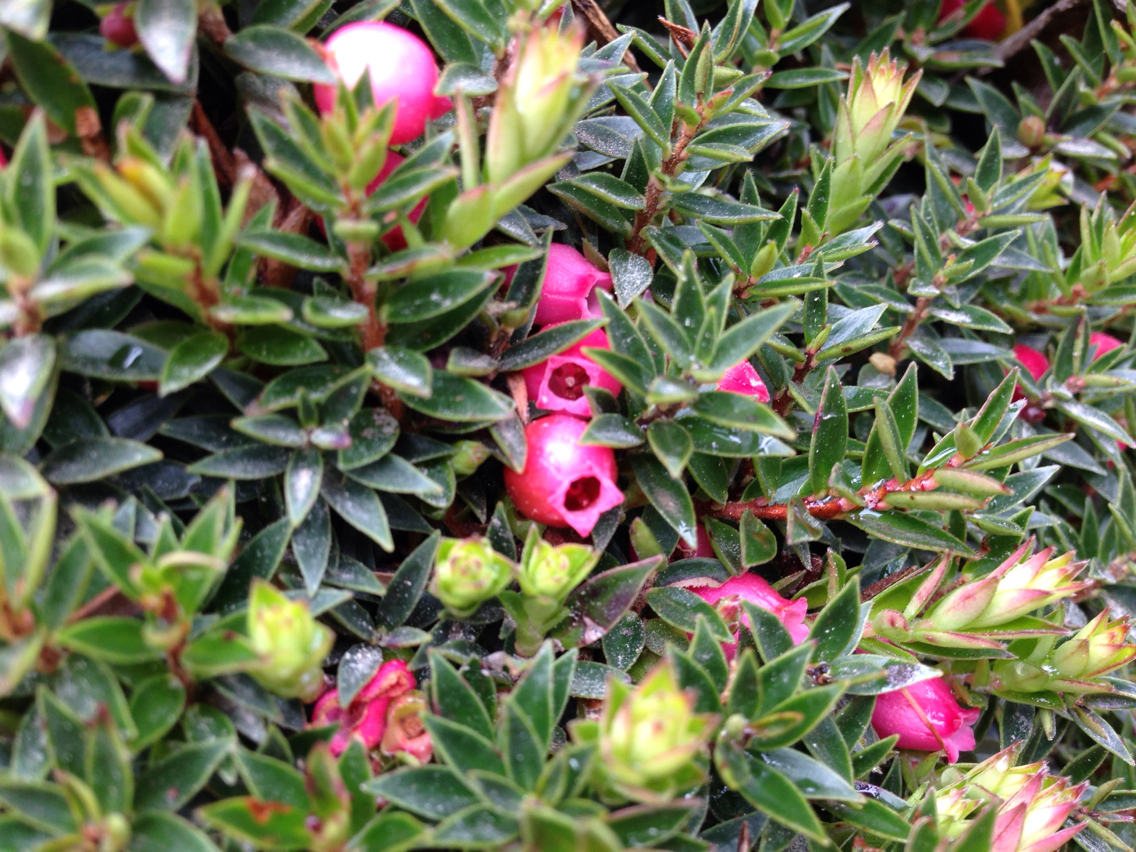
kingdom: Plantae
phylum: Tracheophyta
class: Magnoliopsida
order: Ericales
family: Ericaceae
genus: Disterigma
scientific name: Disterigma empetrifolium
